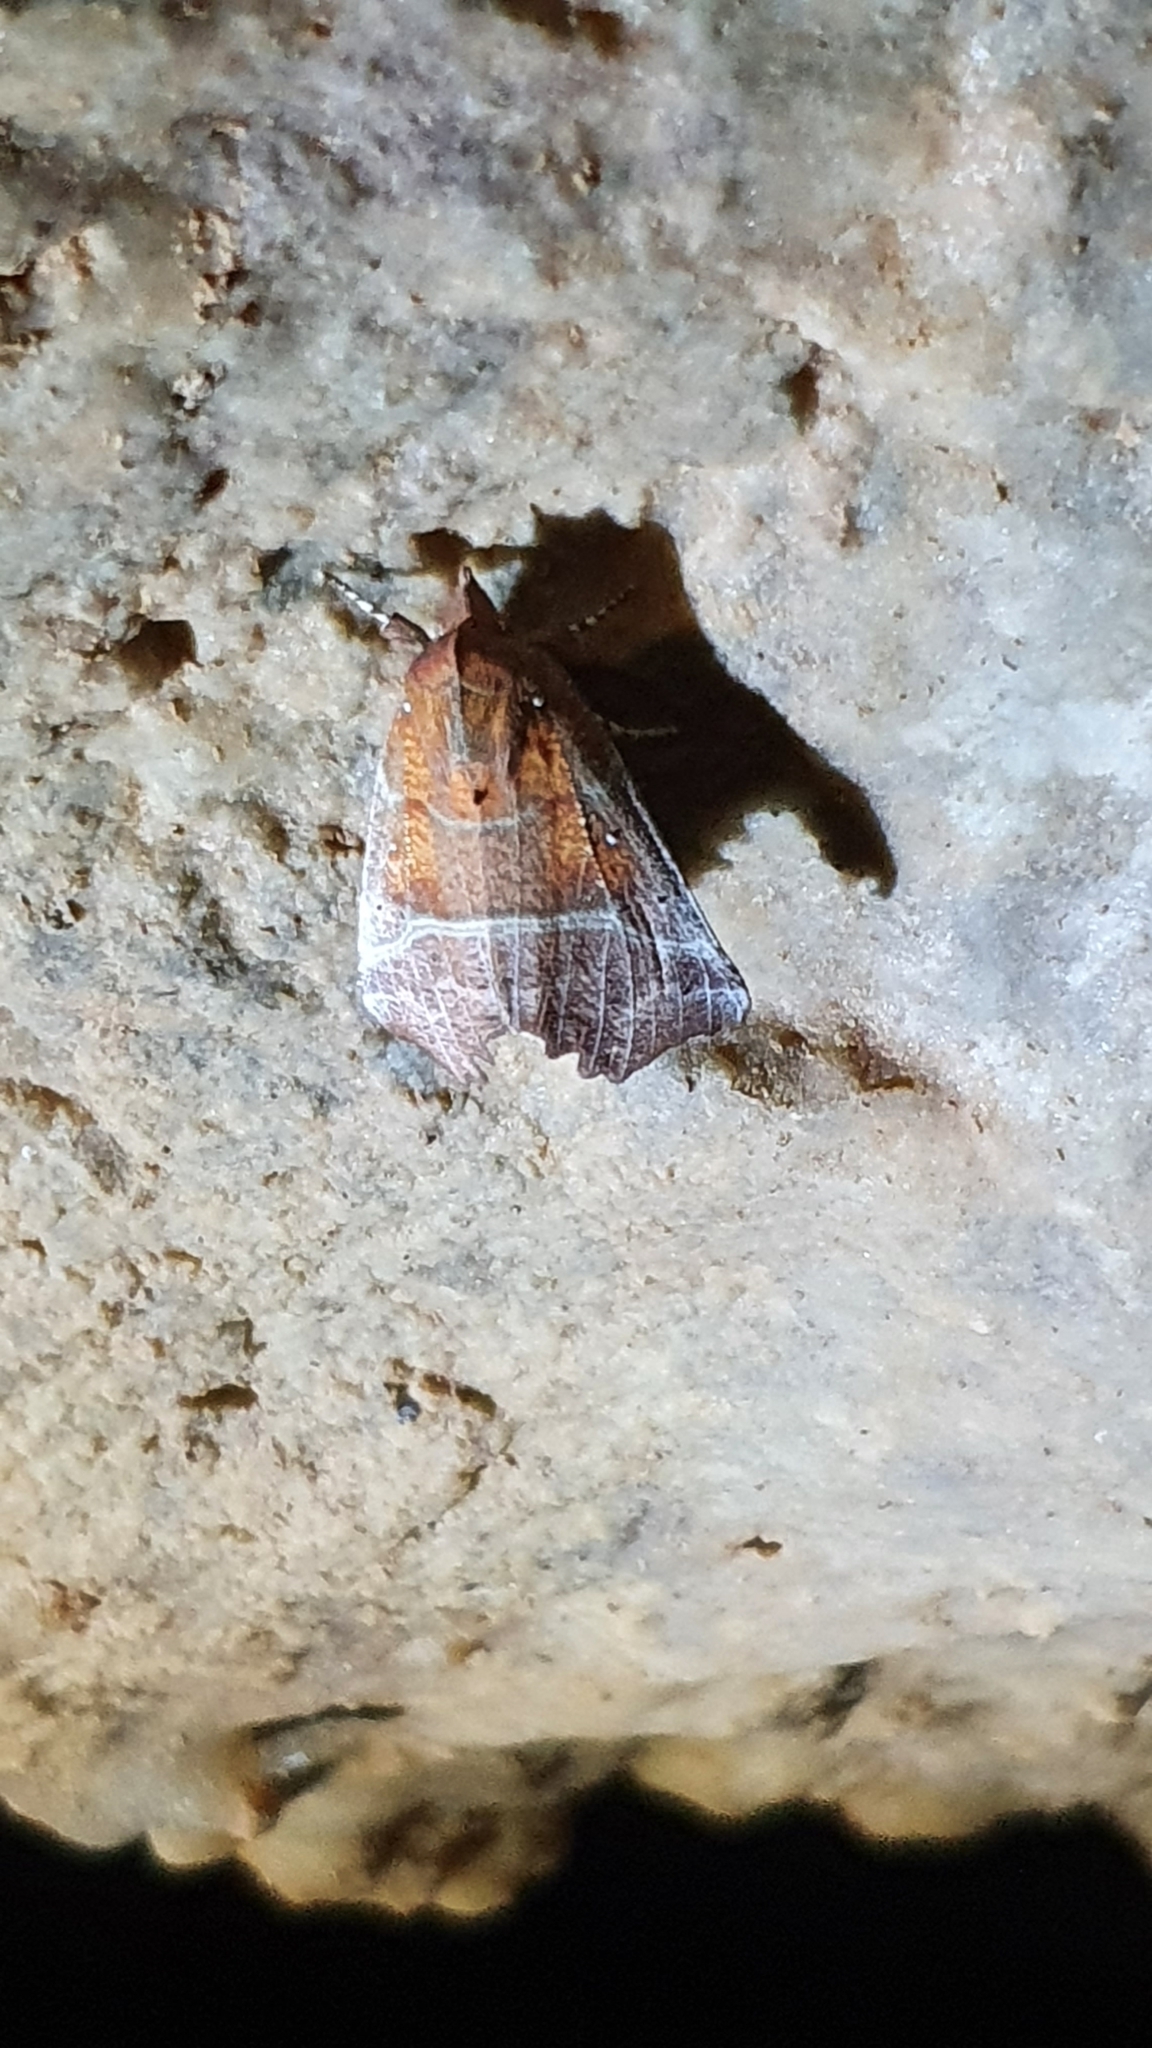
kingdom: Animalia
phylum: Arthropoda
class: Insecta
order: Lepidoptera
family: Erebidae
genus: Scoliopteryx
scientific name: Scoliopteryx libatrix
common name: Herald
